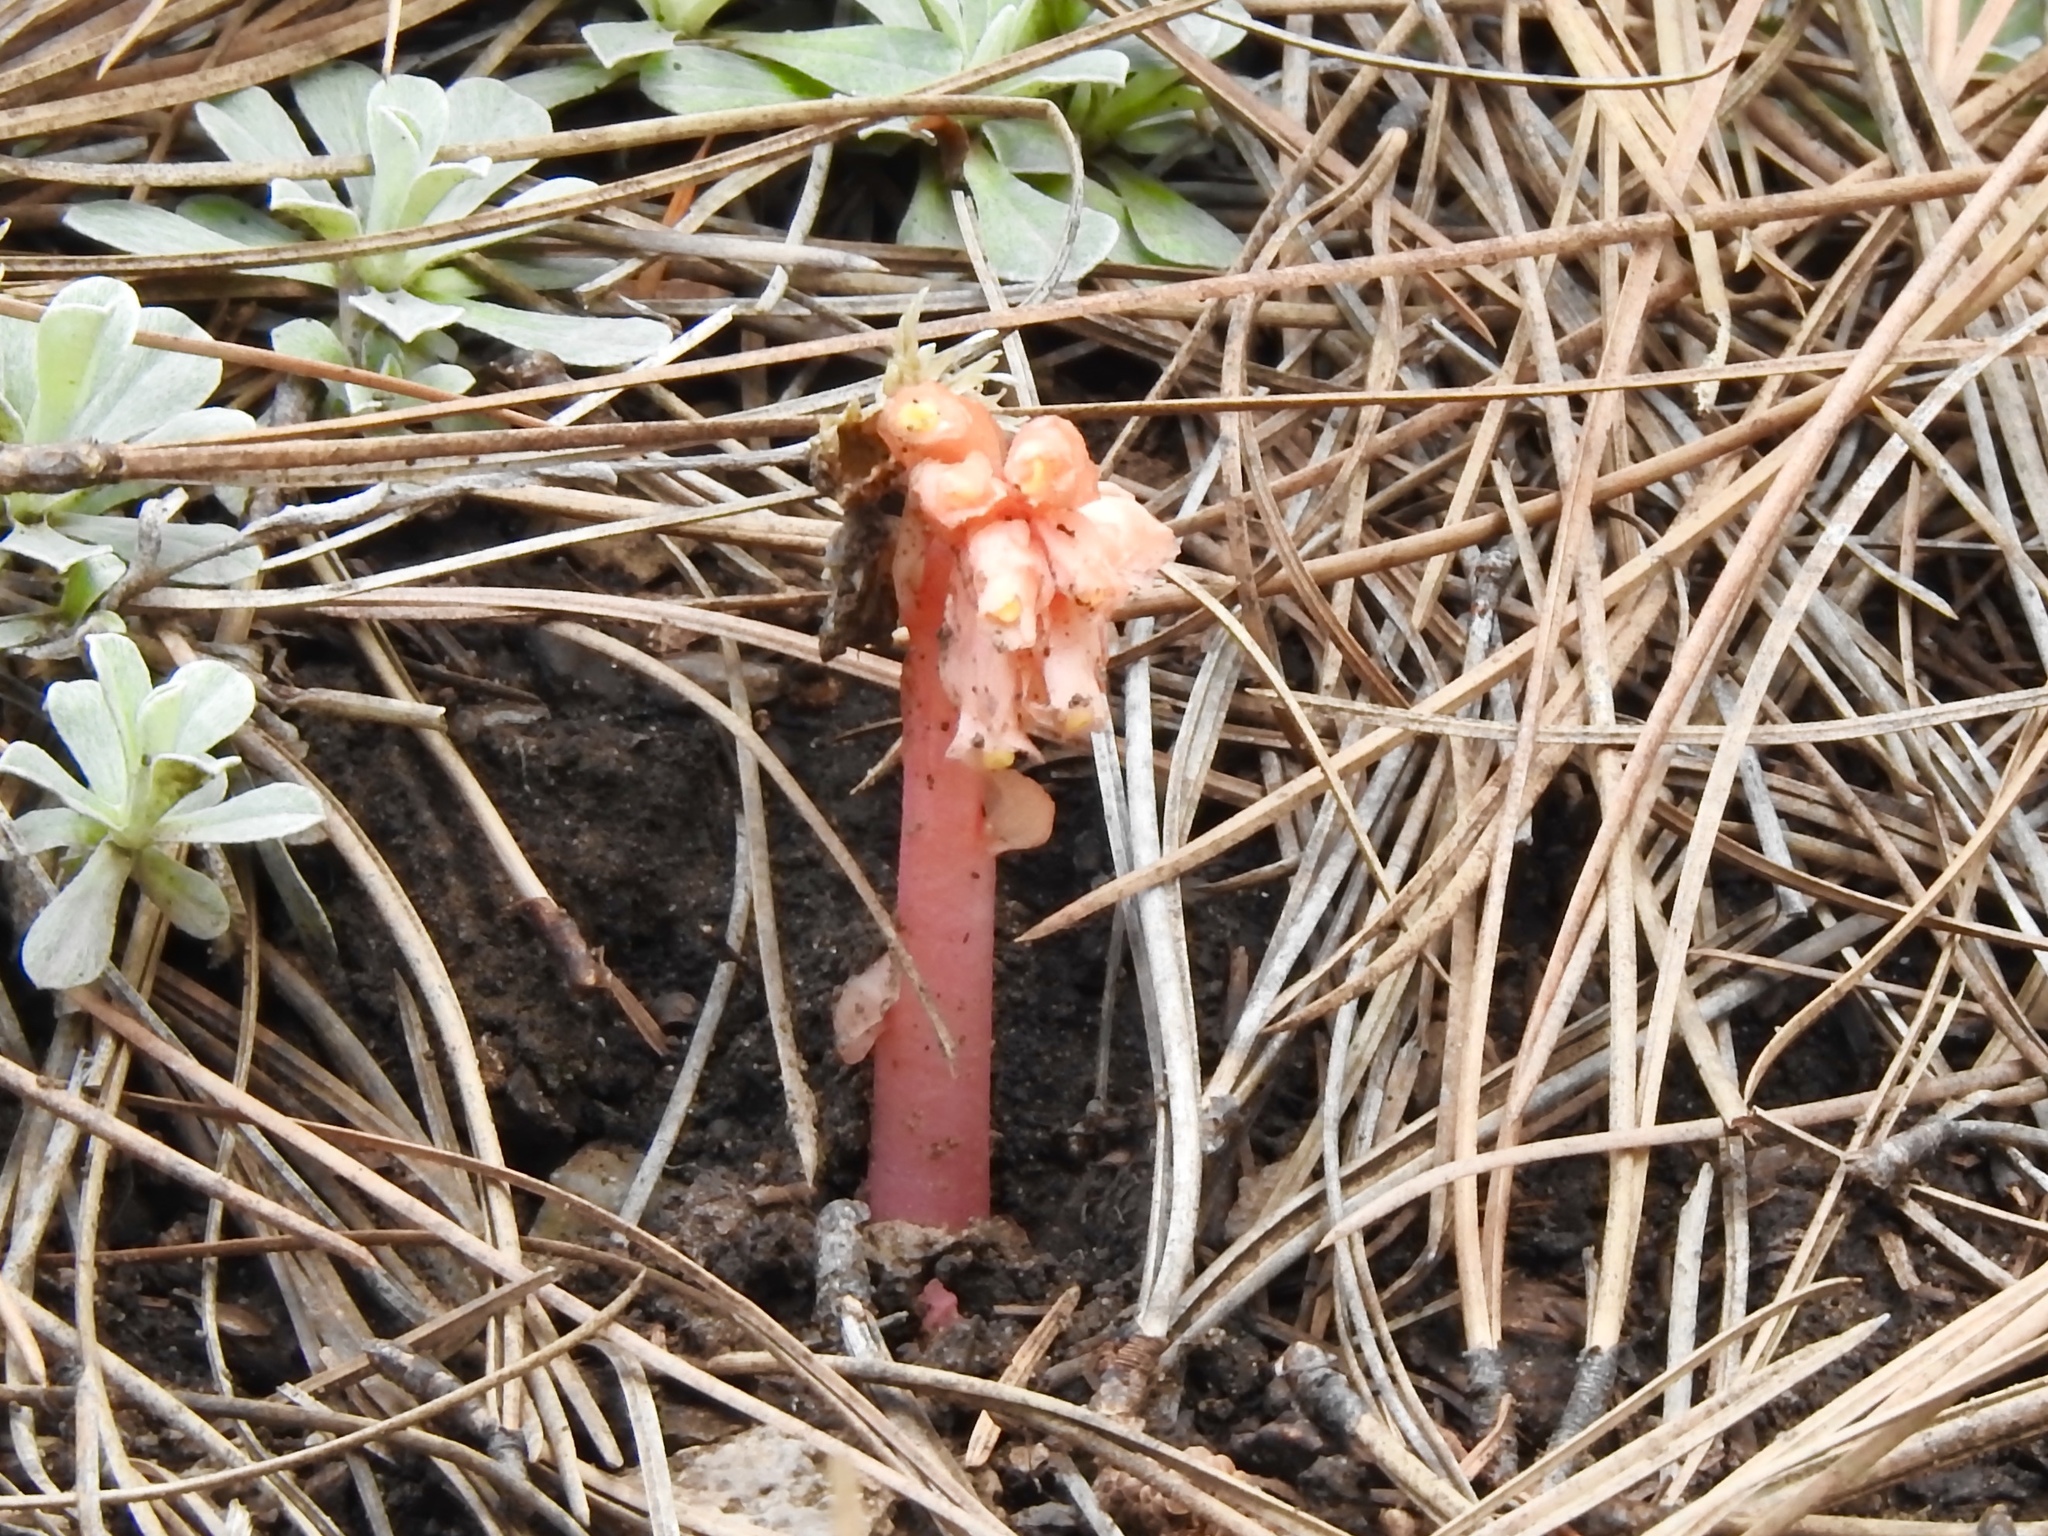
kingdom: Plantae
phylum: Tracheophyta
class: Magnoliopsida
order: Ericales
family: Ericaceae
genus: Hypopitys
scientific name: Hypopitys monotropa
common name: Yellow bird's-nest
